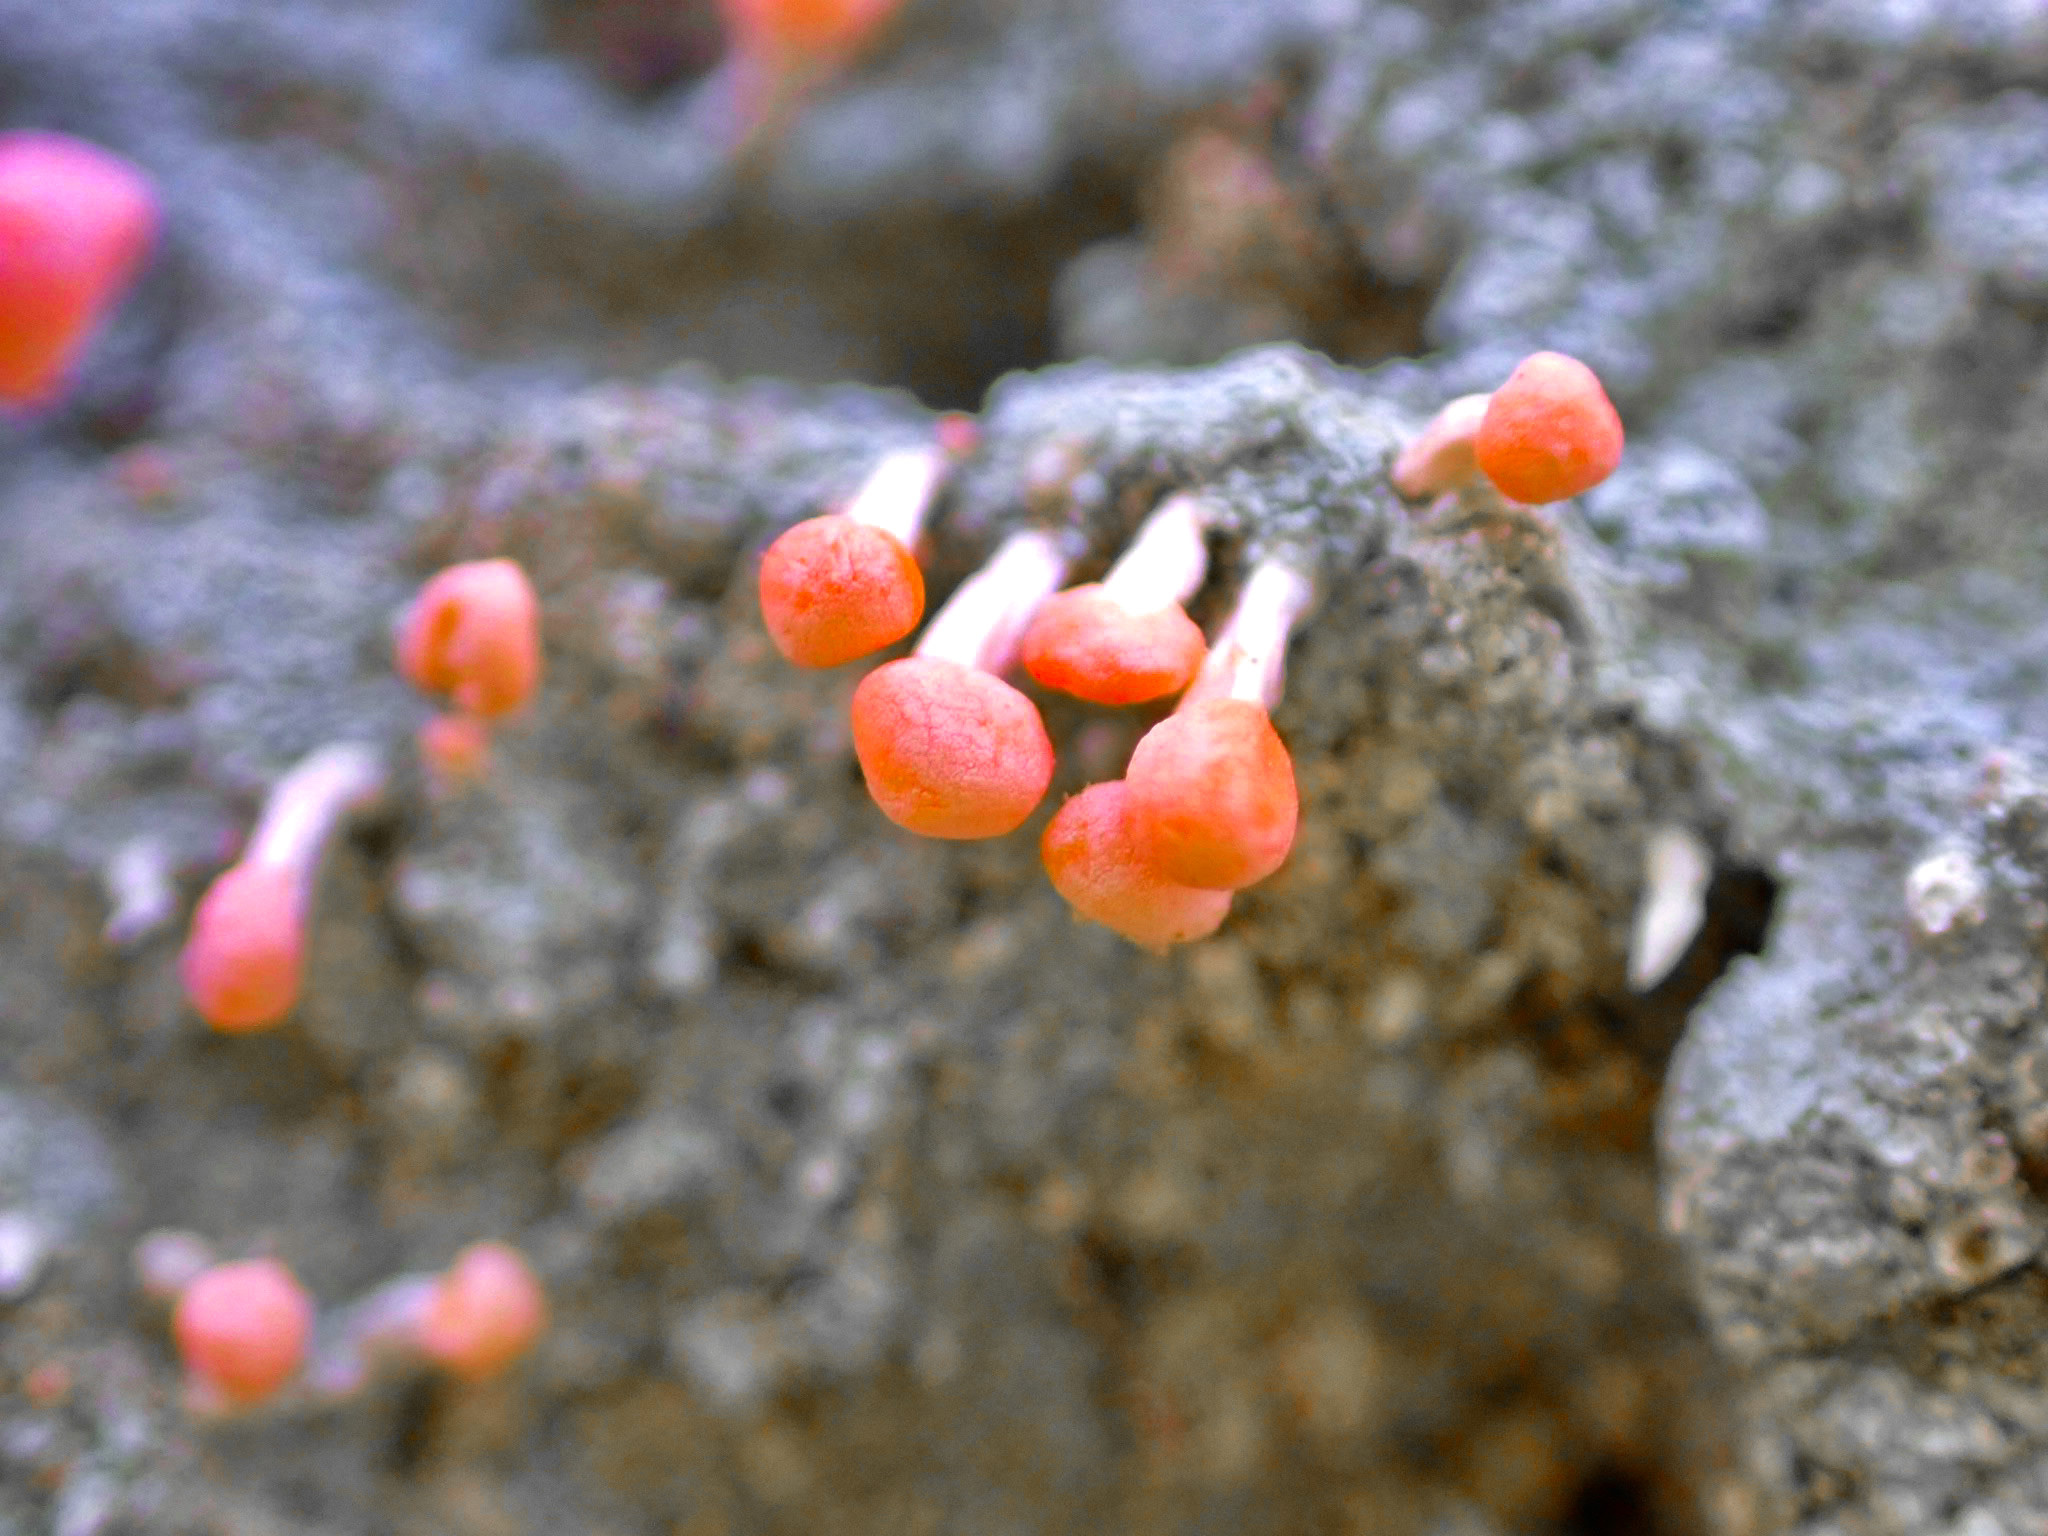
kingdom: Fungi
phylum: Ascomycota
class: Lecanoromycetes
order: Pertusariales
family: Icmadophilaceae
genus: Dibaeis
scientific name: Dibaeis baeomyces
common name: Pink earth lichen
